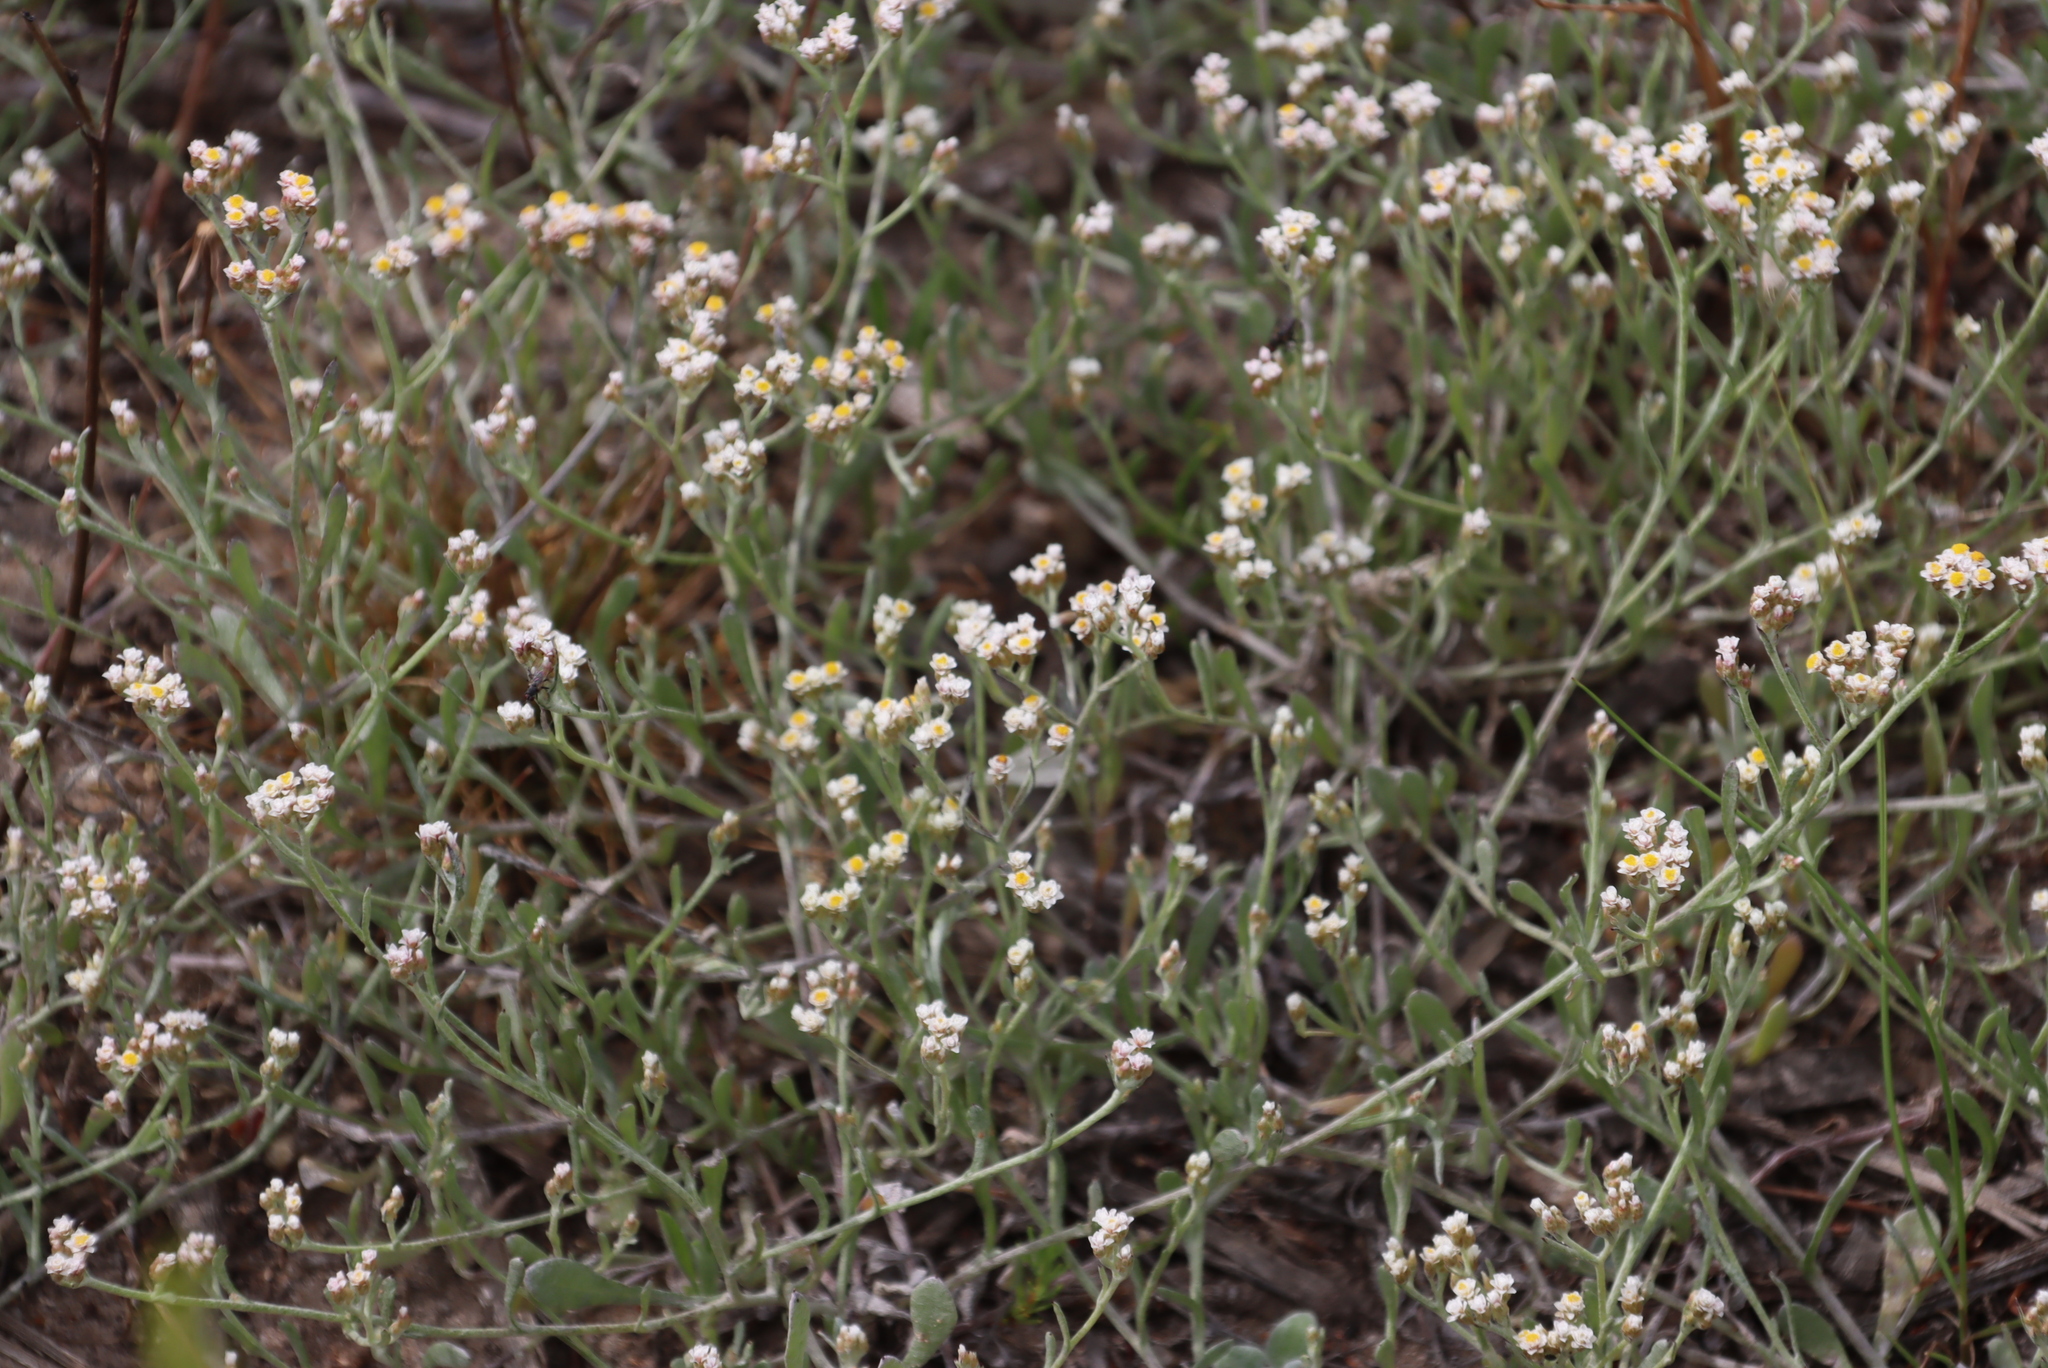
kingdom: Plantae
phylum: Tracheophyta
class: Magnoliopsida
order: Asterales
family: Asteraceae
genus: Helichrysum
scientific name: Helichrysum indicum
